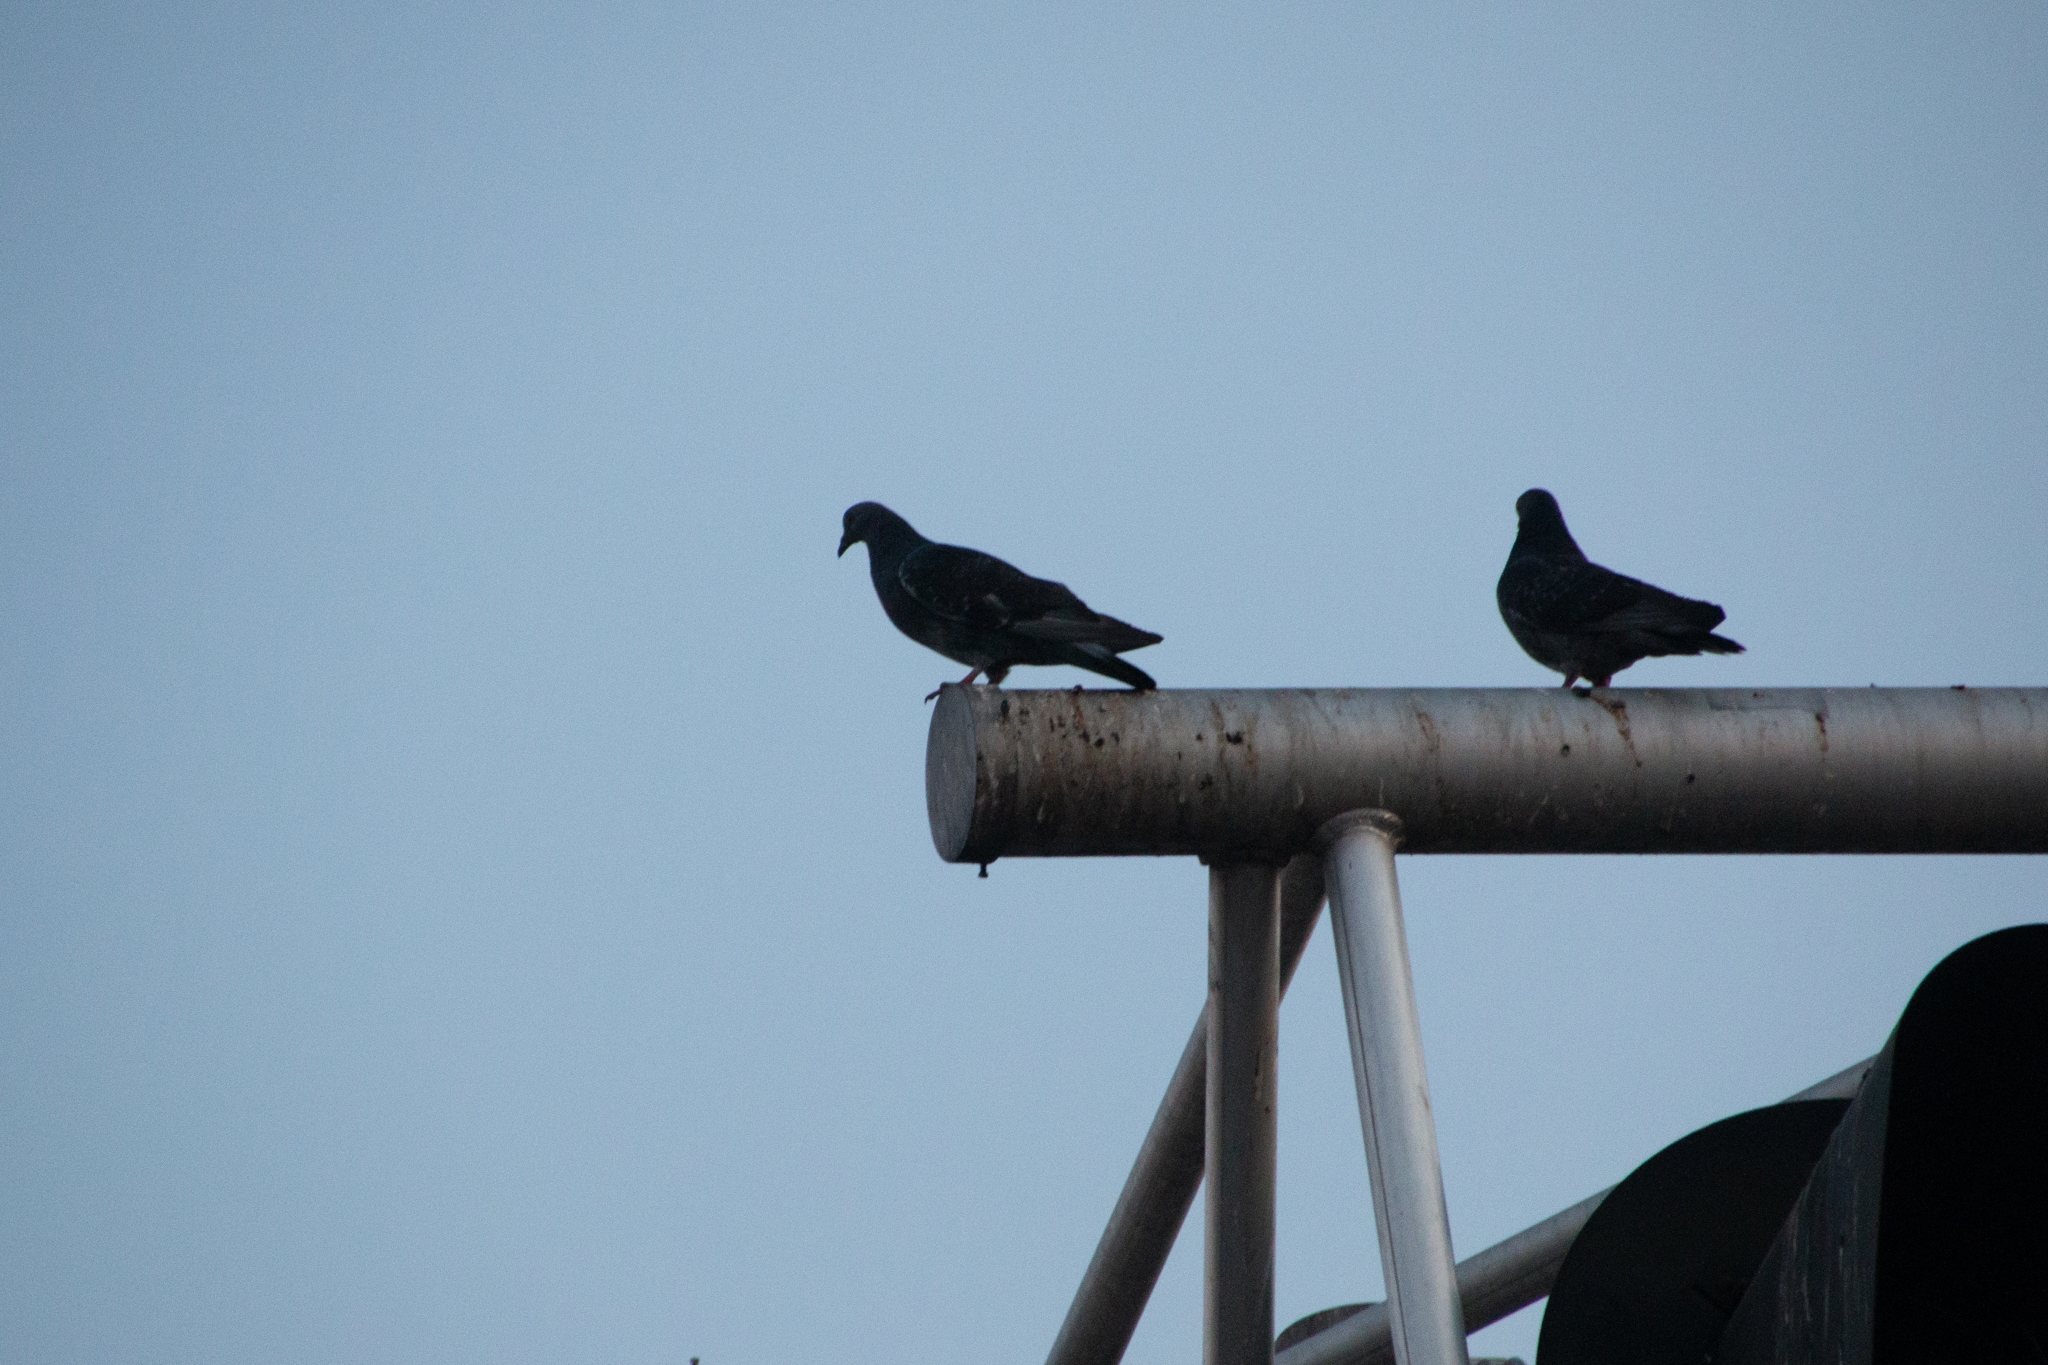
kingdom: Animalia
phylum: Chordata
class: Aves
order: Columbiformes
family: Columbidae
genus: Columba
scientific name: Columba livia
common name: Rock pigeon
